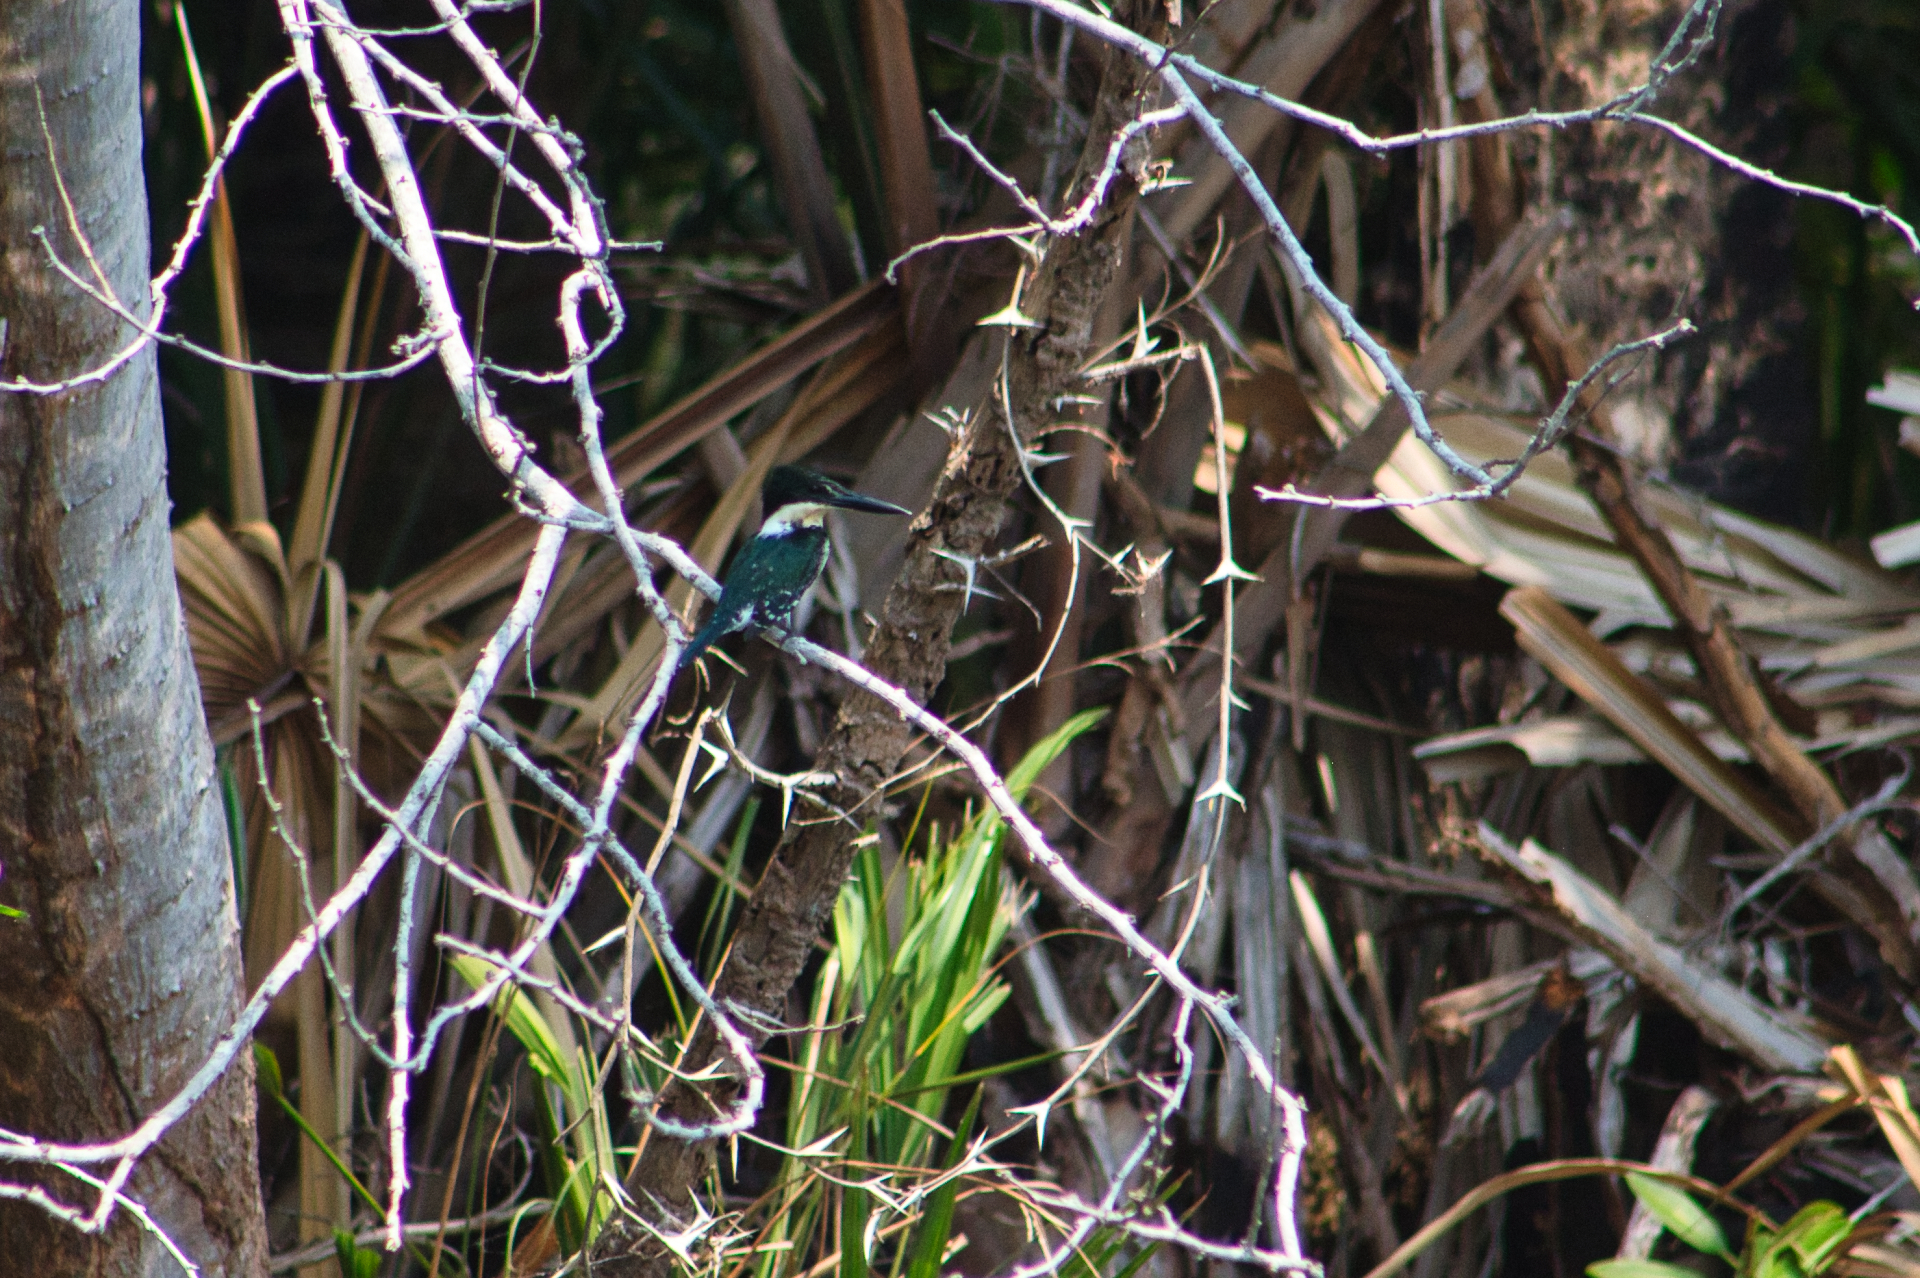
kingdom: Animalia
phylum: Chordata
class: Aves
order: Coraciiformes
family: Alcedinidae
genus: Chloroceryle
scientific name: Chloroceryle americana
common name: Green kingfisher
